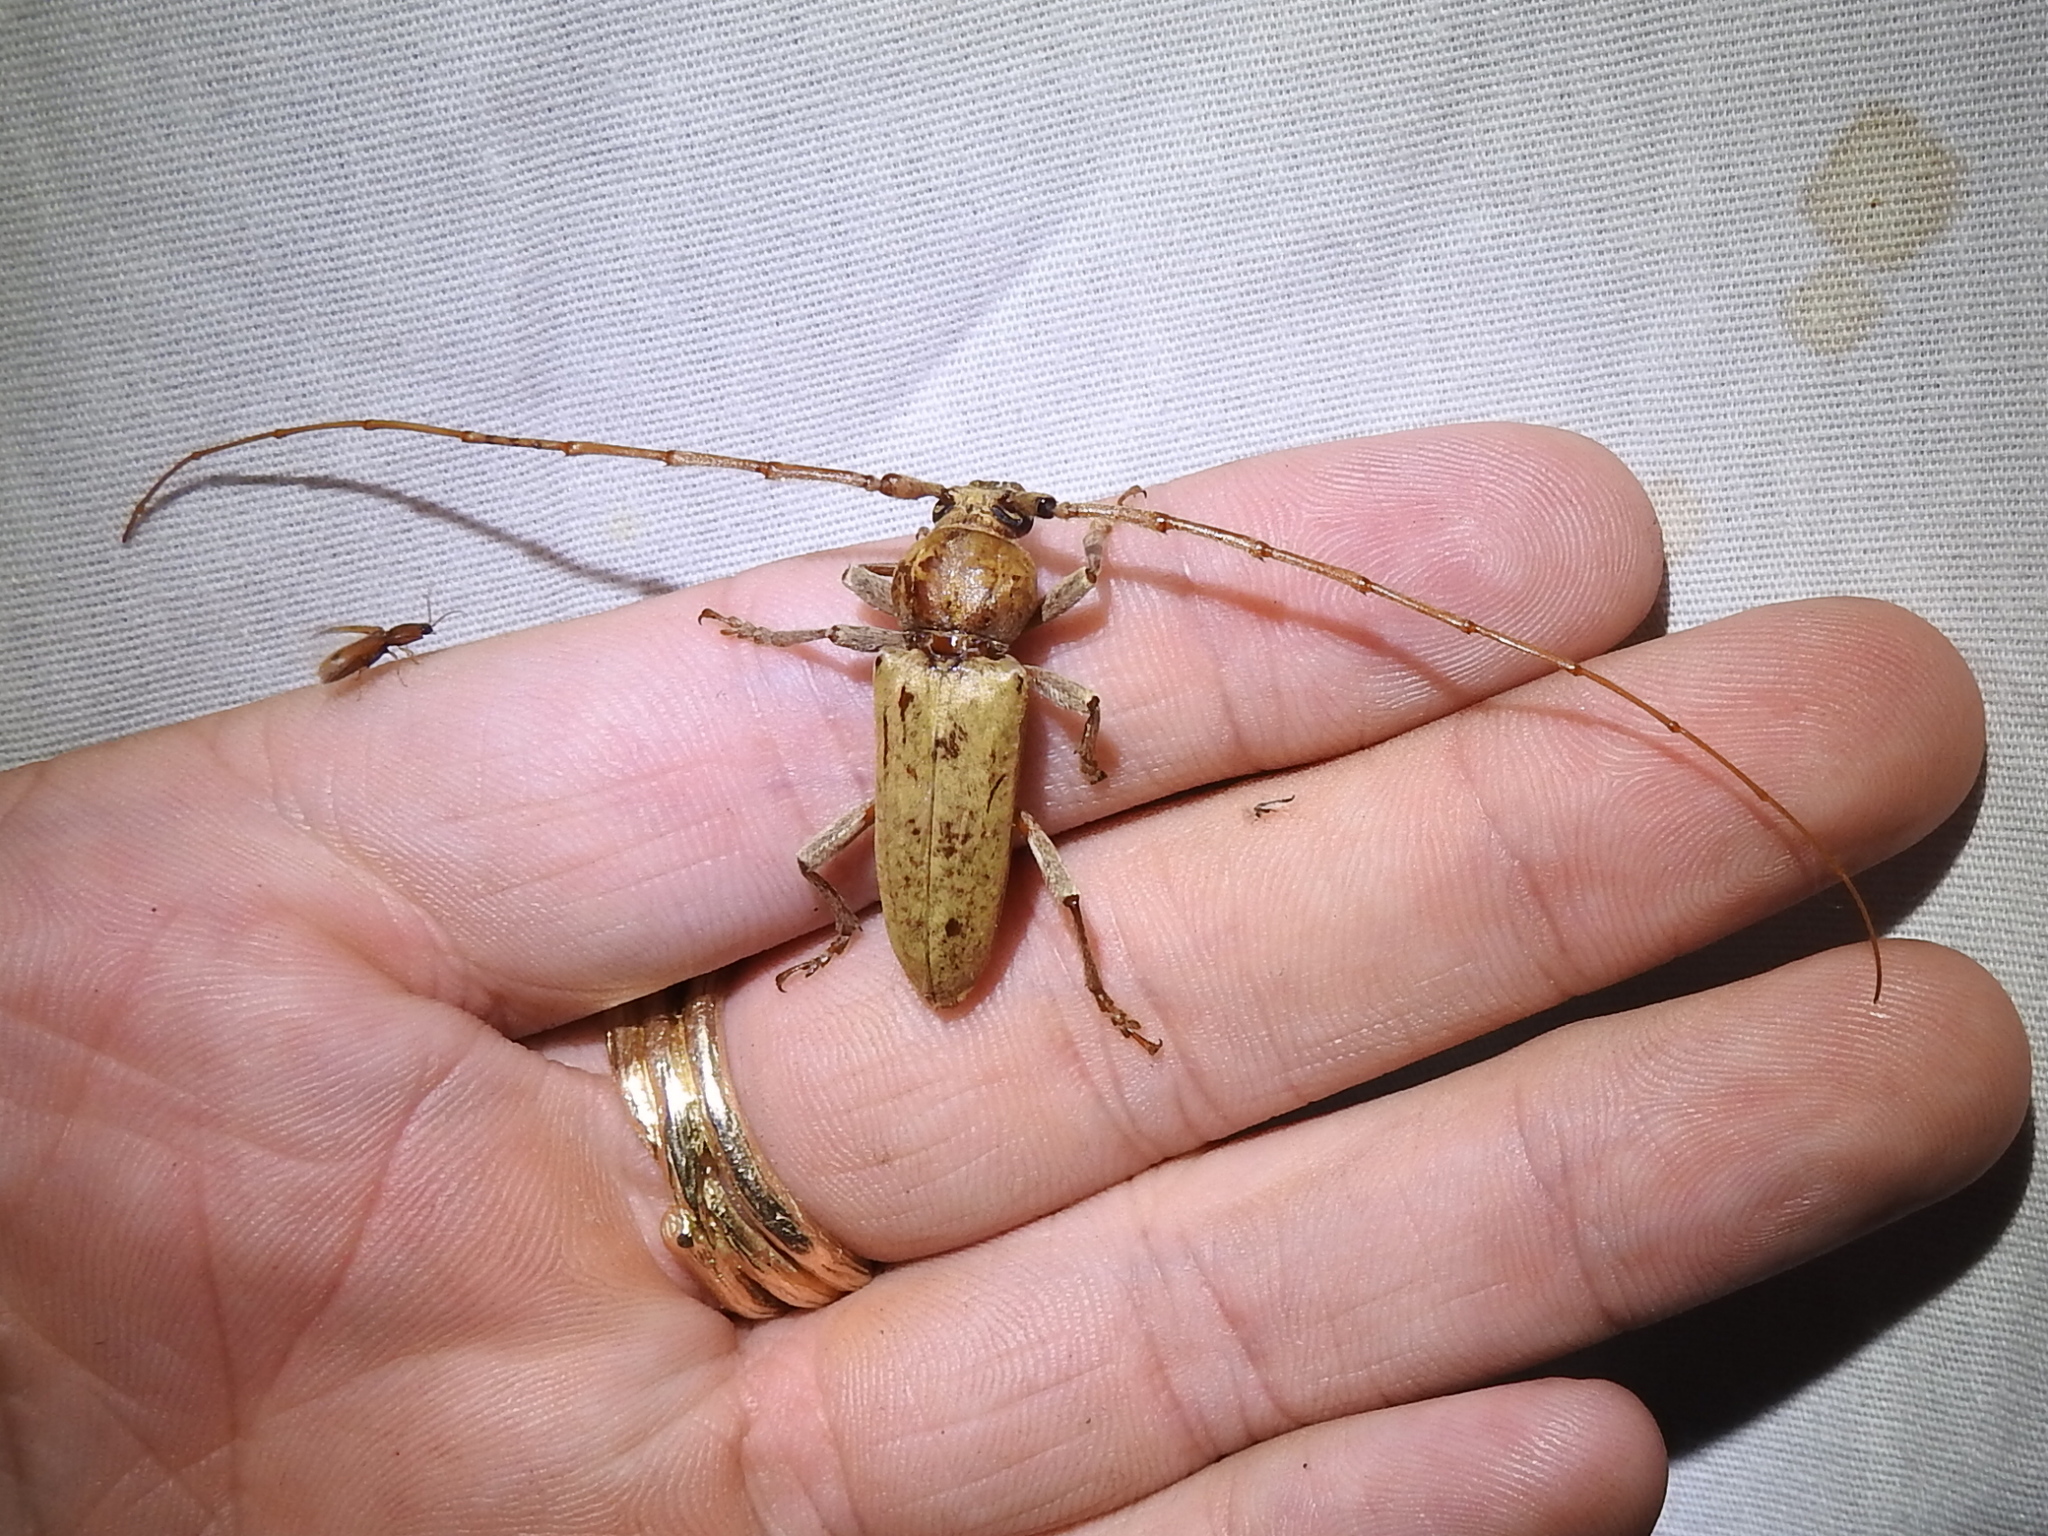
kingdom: Animalia
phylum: Arthropoda
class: Insecta
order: Coleoptera
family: Cerambycidae
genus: Enaphalodes
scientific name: Enaphalodes rufulus
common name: Red oak borer
